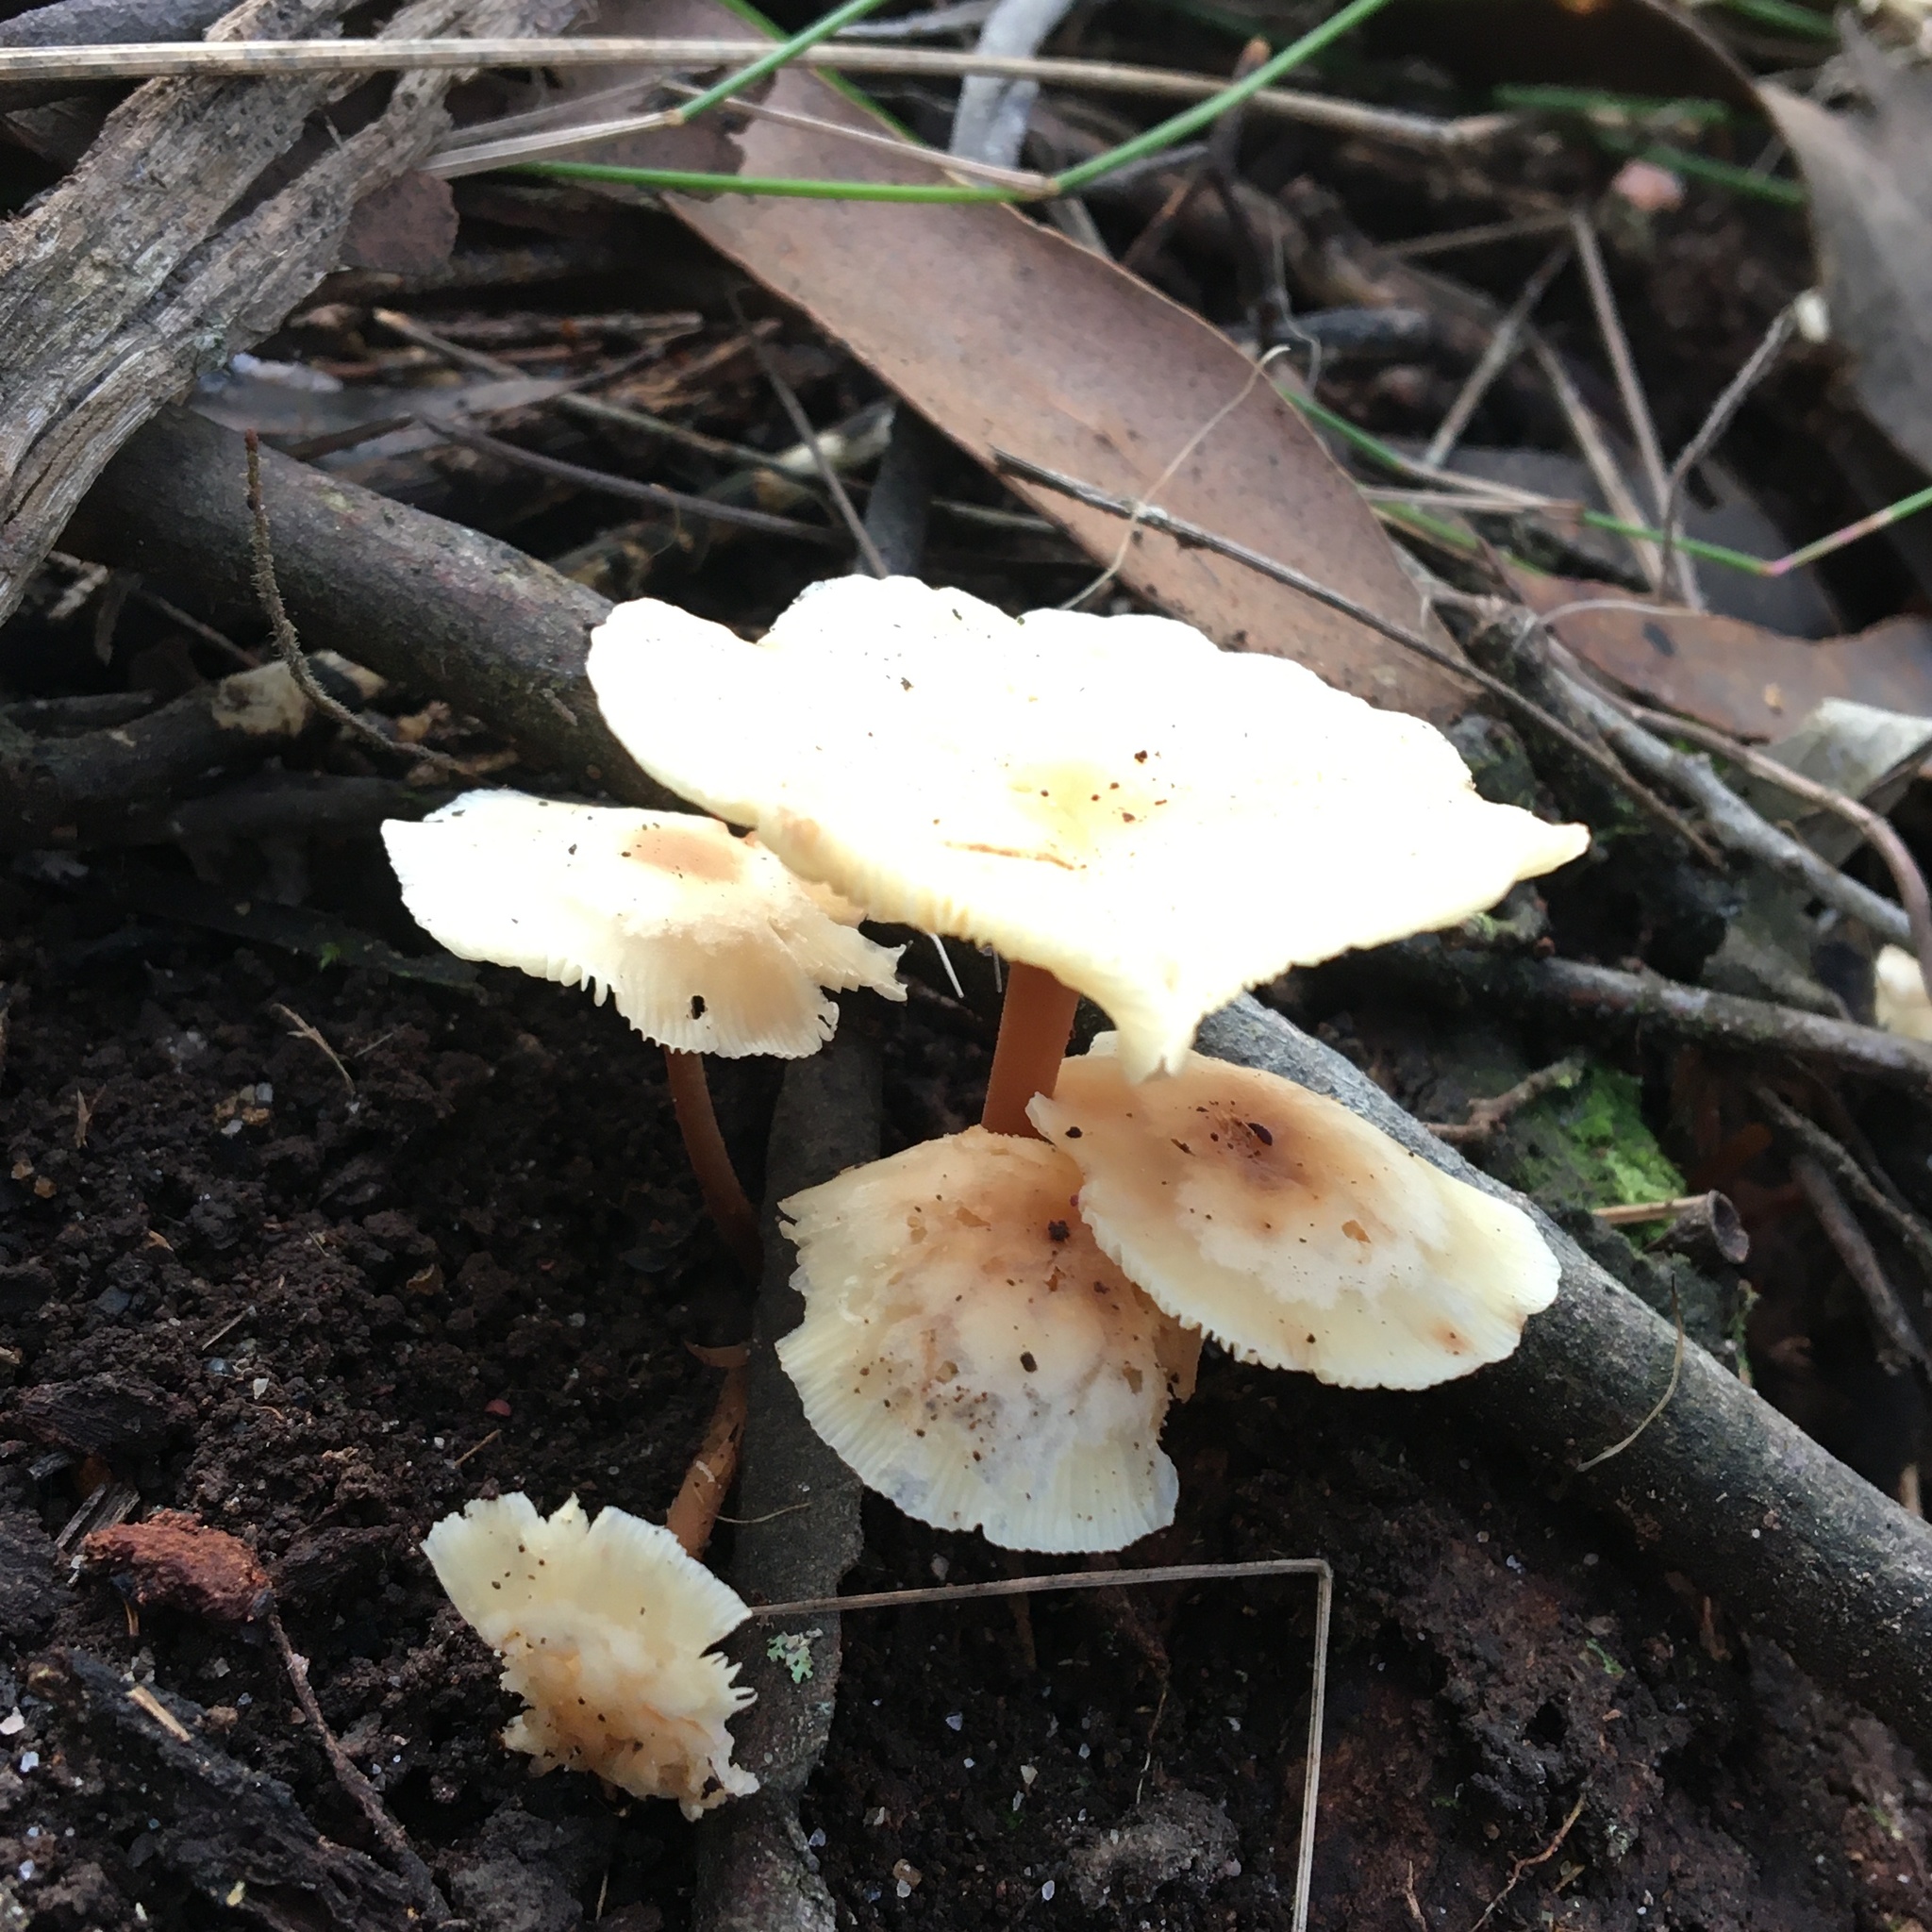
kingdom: Fungi
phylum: Basidiomycota
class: Agaricomycetes
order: Agaricales
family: Omphalotaceae
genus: Rhodocollybia
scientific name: Rhodocollybia
